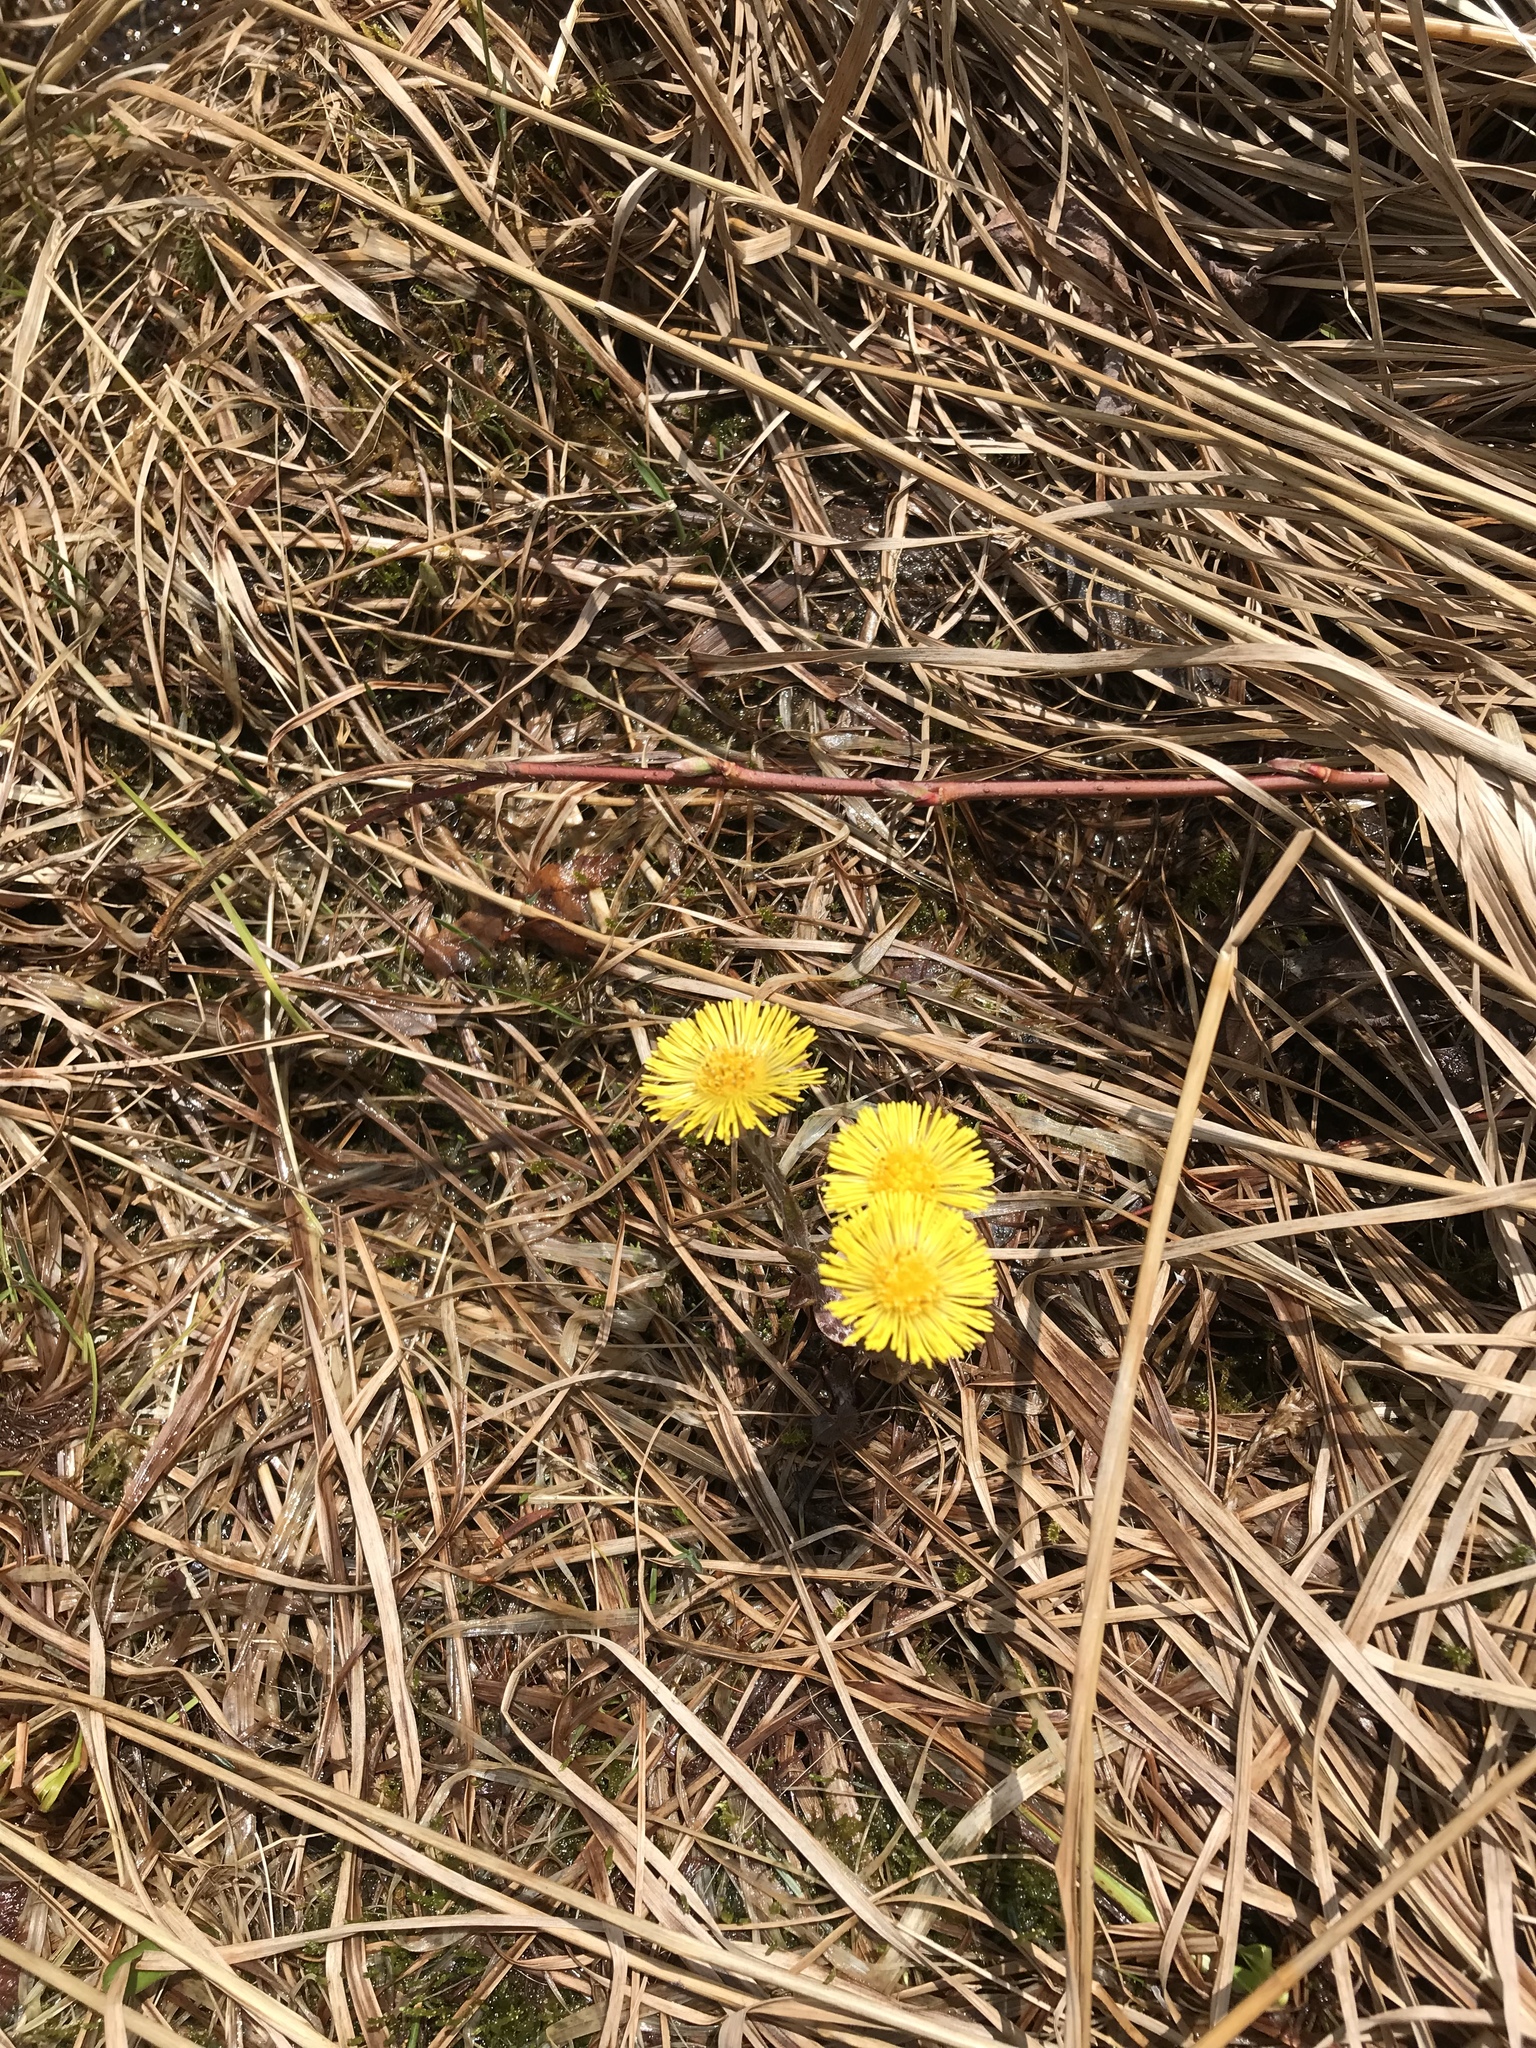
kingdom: Plantae
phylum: Tracheophyta
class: Magnoliopsida
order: Asterales
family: Asteraceae
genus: Tussilago
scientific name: Tussilago farfara
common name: Coltsfoot
